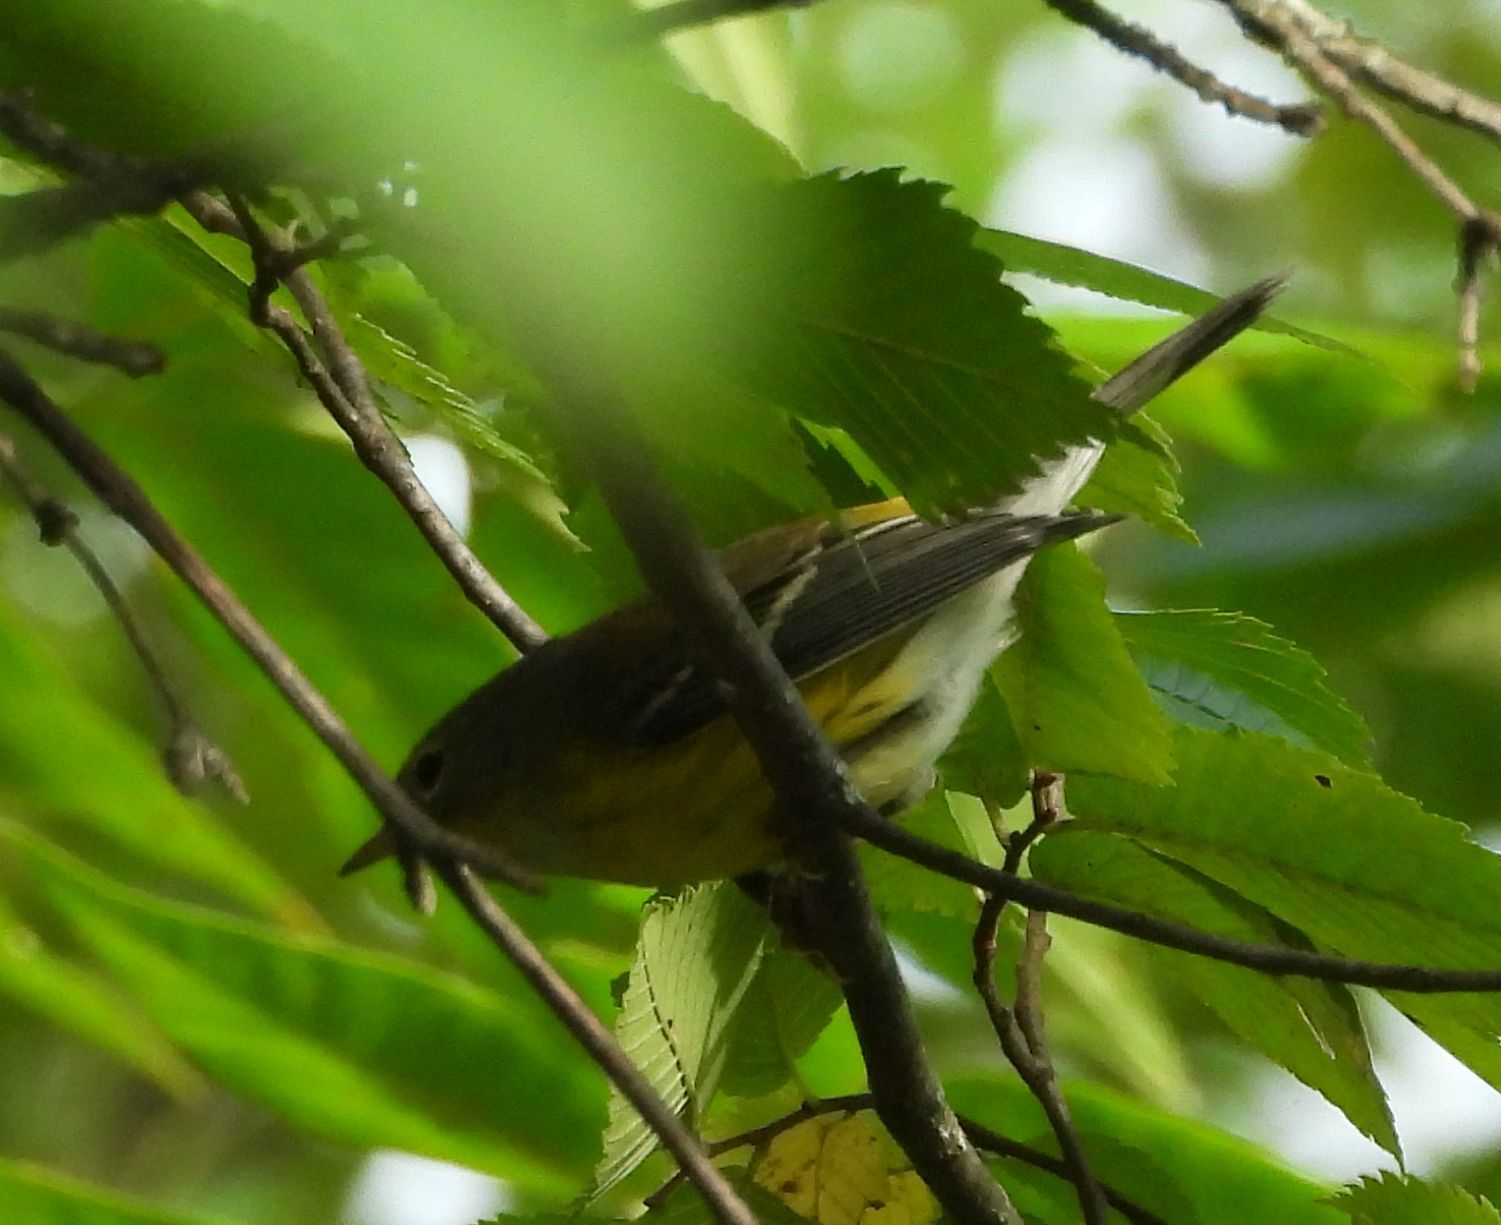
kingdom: Animalia
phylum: Chordata
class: Aves
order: Passeriformes
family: Parulidae
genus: Setophaga
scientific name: Setophaga magnolia
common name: Magnolia warbler
